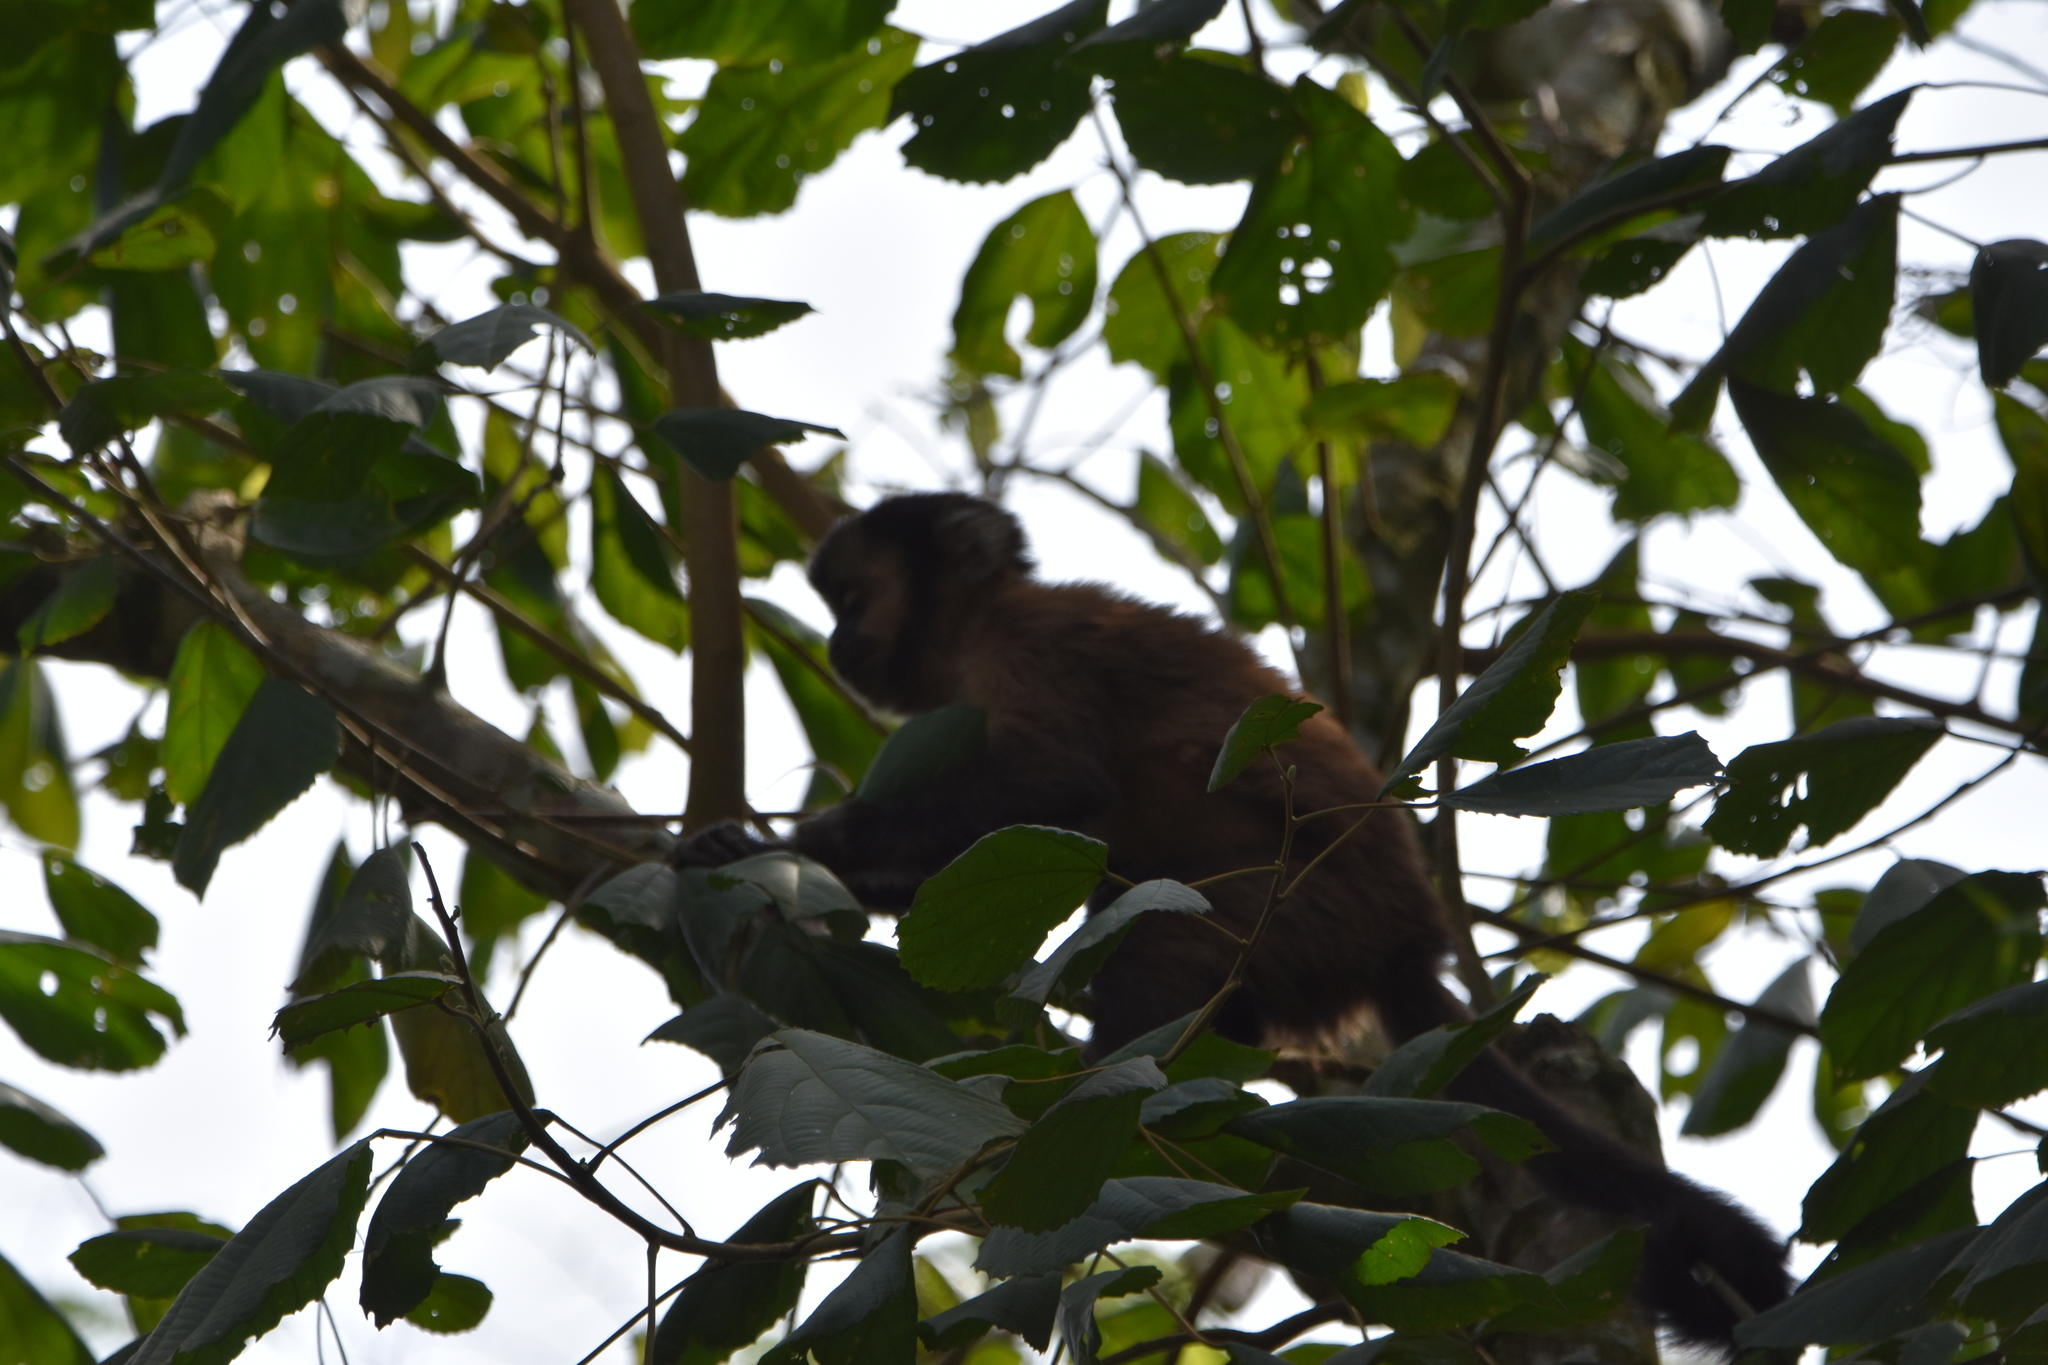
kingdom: Animalia
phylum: Chordata
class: Mammalia
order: Primates
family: Cebidae
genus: Sapajus
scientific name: Sapajus nigritus
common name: Black capuchin
